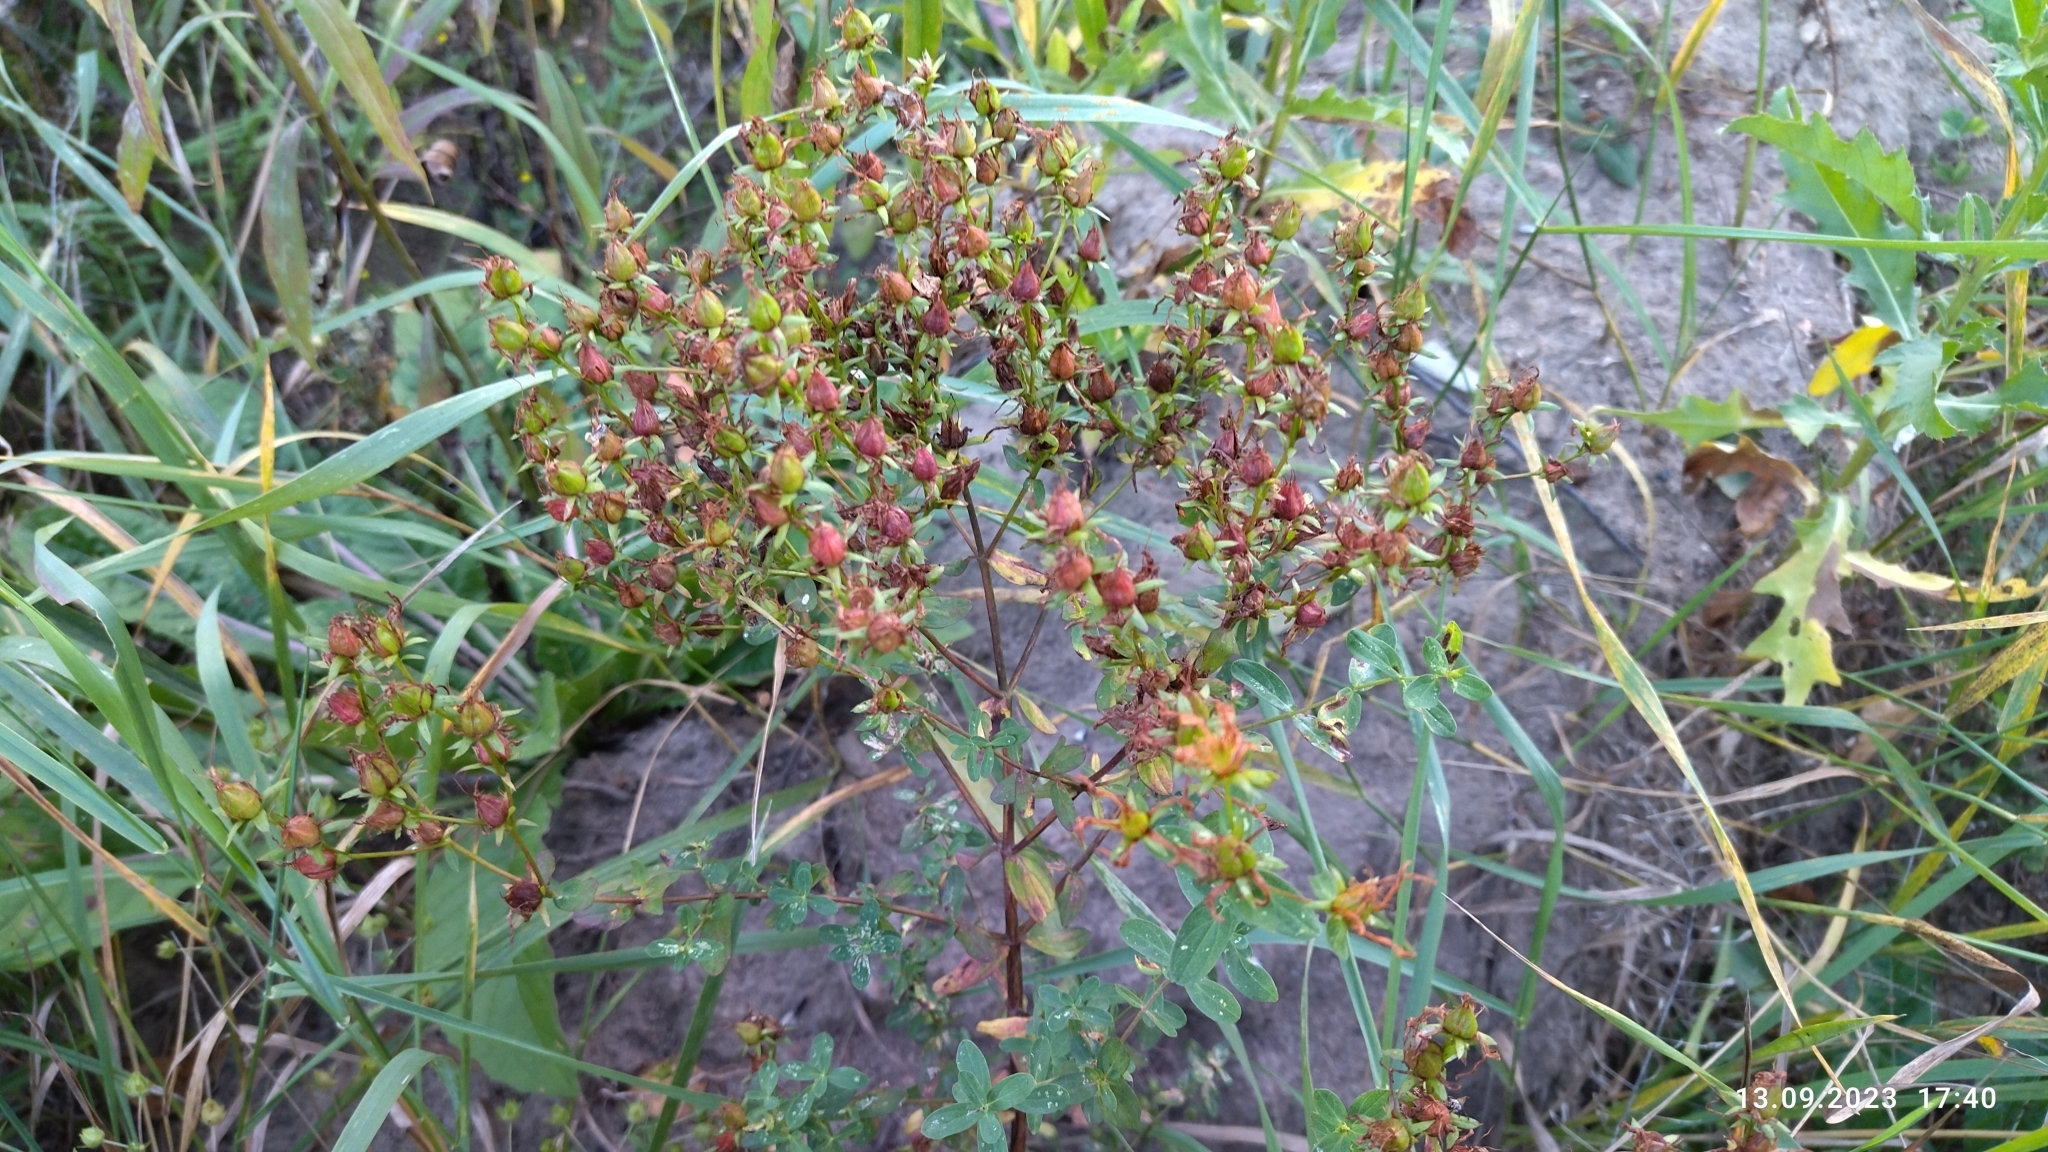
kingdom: Plantae
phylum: Tracheophyta
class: Magnoliopsida
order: Malpighiales
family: Hypericaceae
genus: Hypericum
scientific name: Hypericum perforatum
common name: Common st. johnswort
